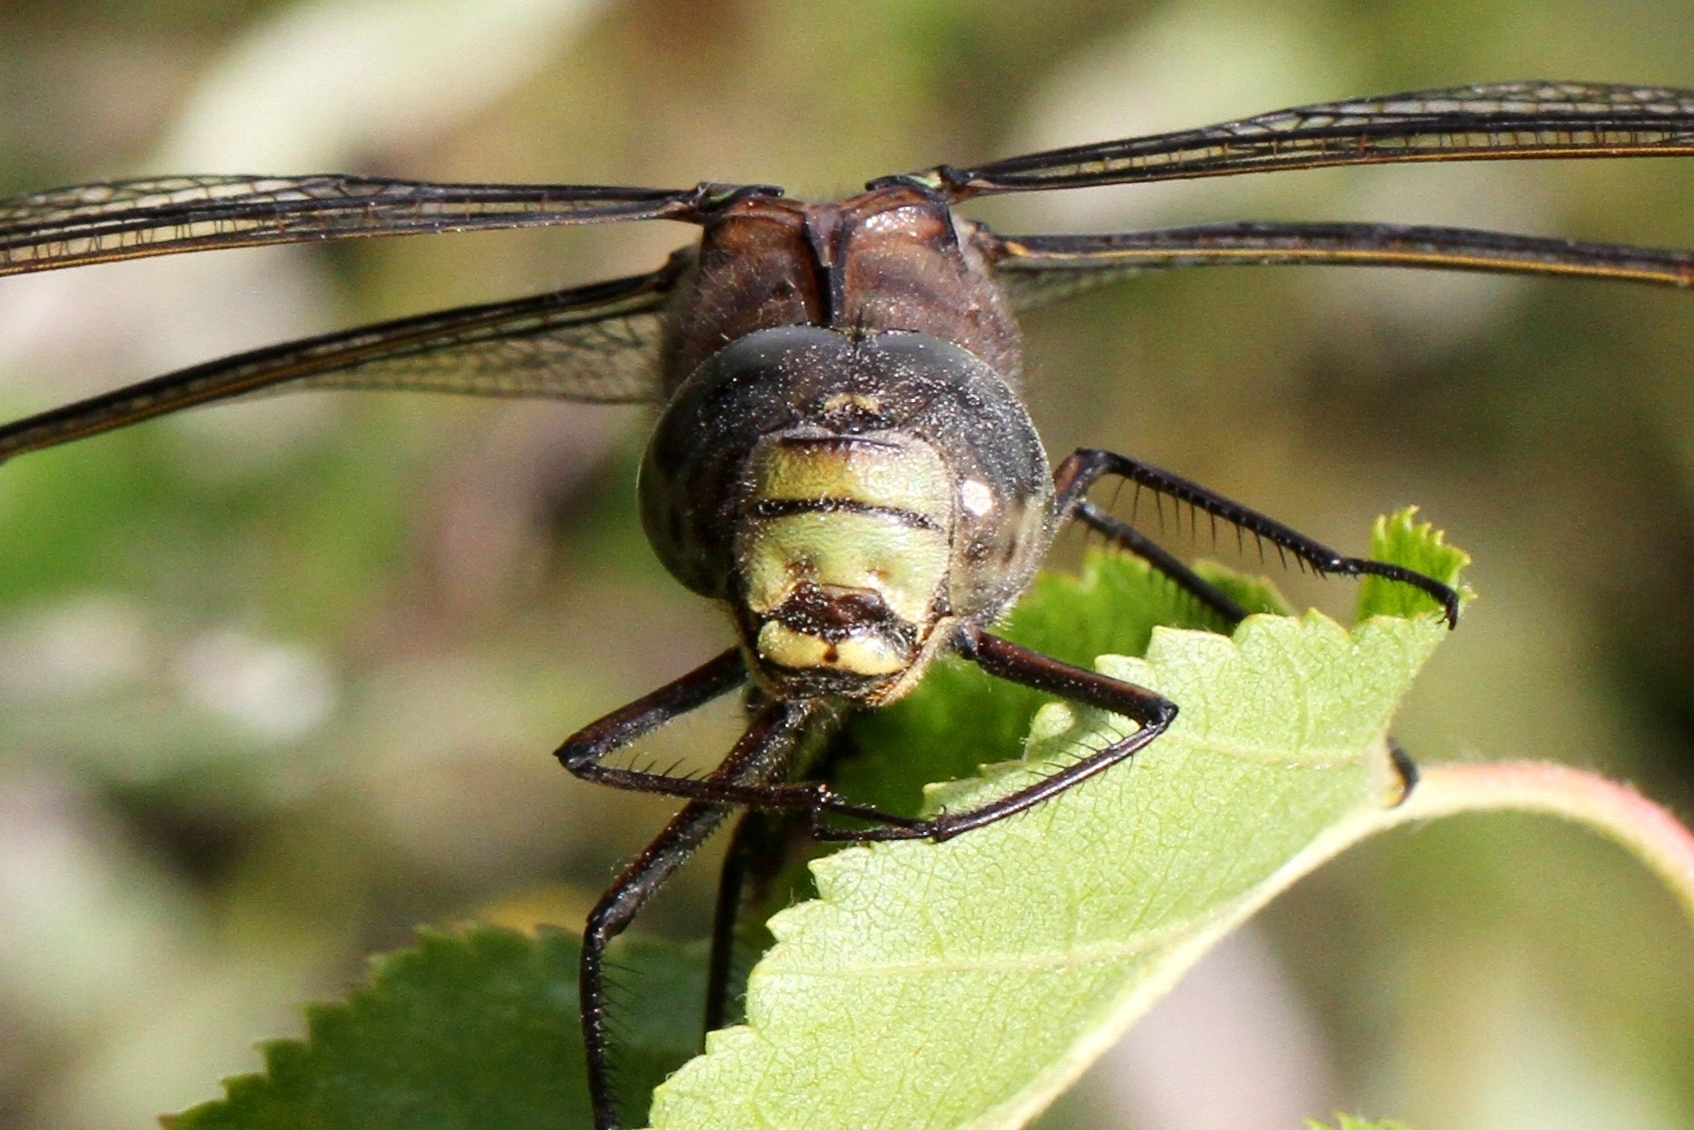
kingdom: Animalia
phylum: Arthropoda
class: Insecta
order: Odonata
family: Aeshnidae
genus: Aeshna
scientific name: Aeshna eremita
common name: Lake darner
